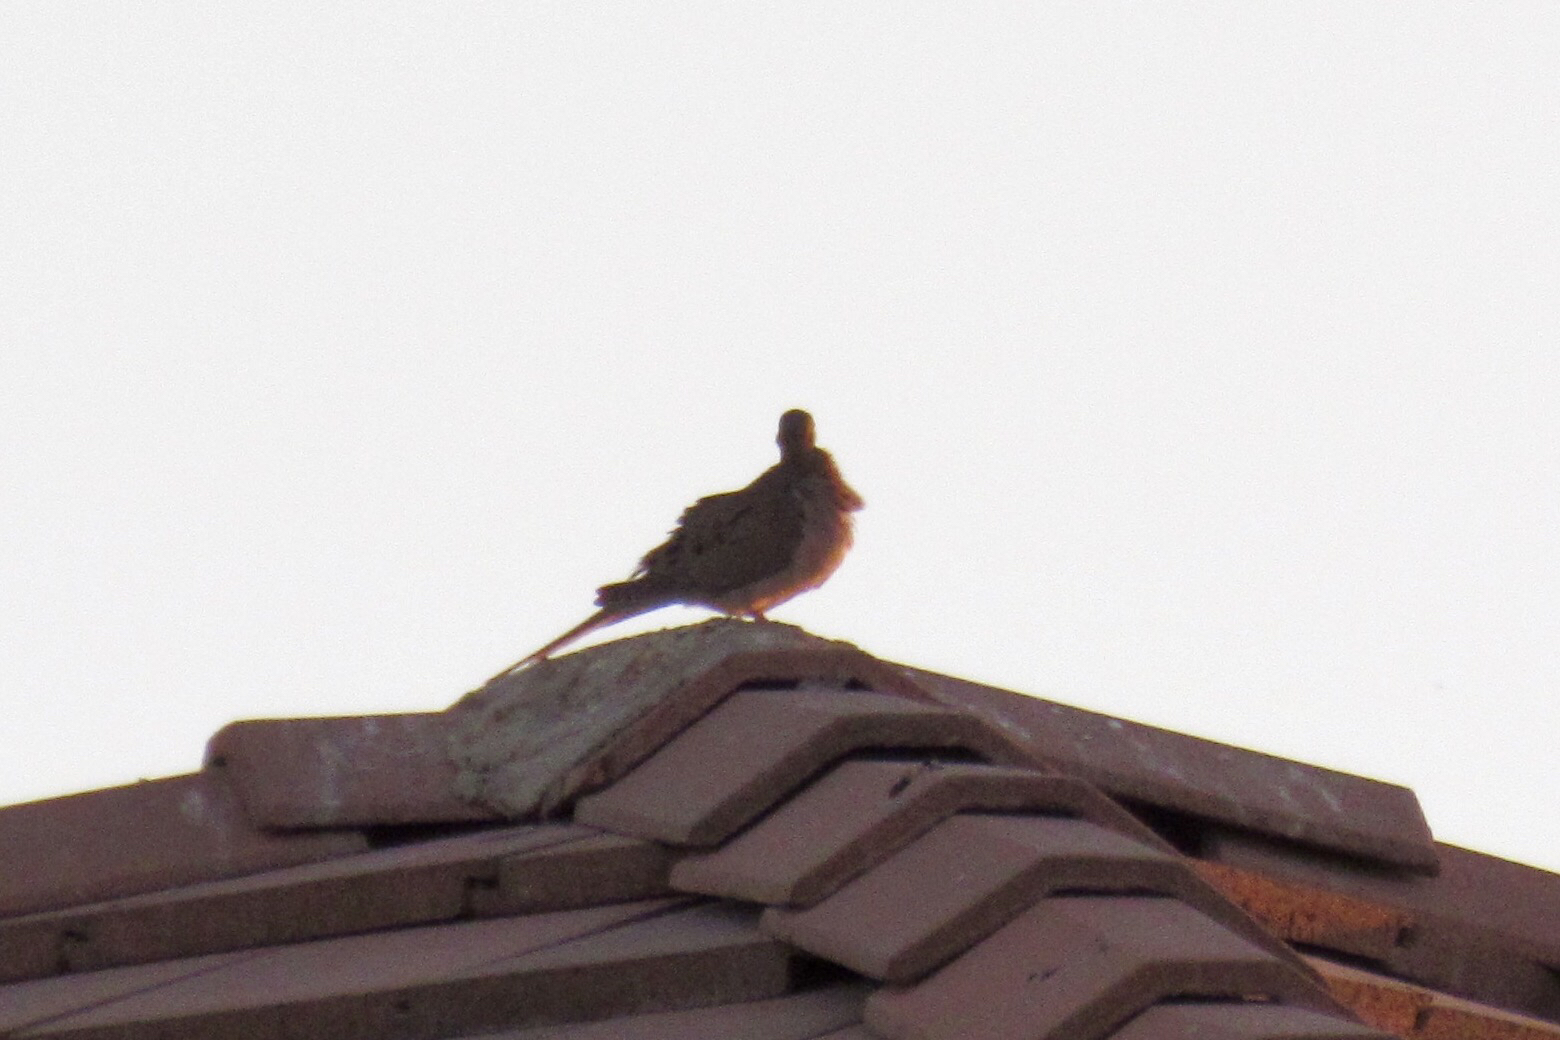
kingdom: Animalia
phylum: Chordata
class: Aves
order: Columbiformes
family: Columbidae
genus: Zenaida
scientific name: Zenaida macroura
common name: Mourning dove
